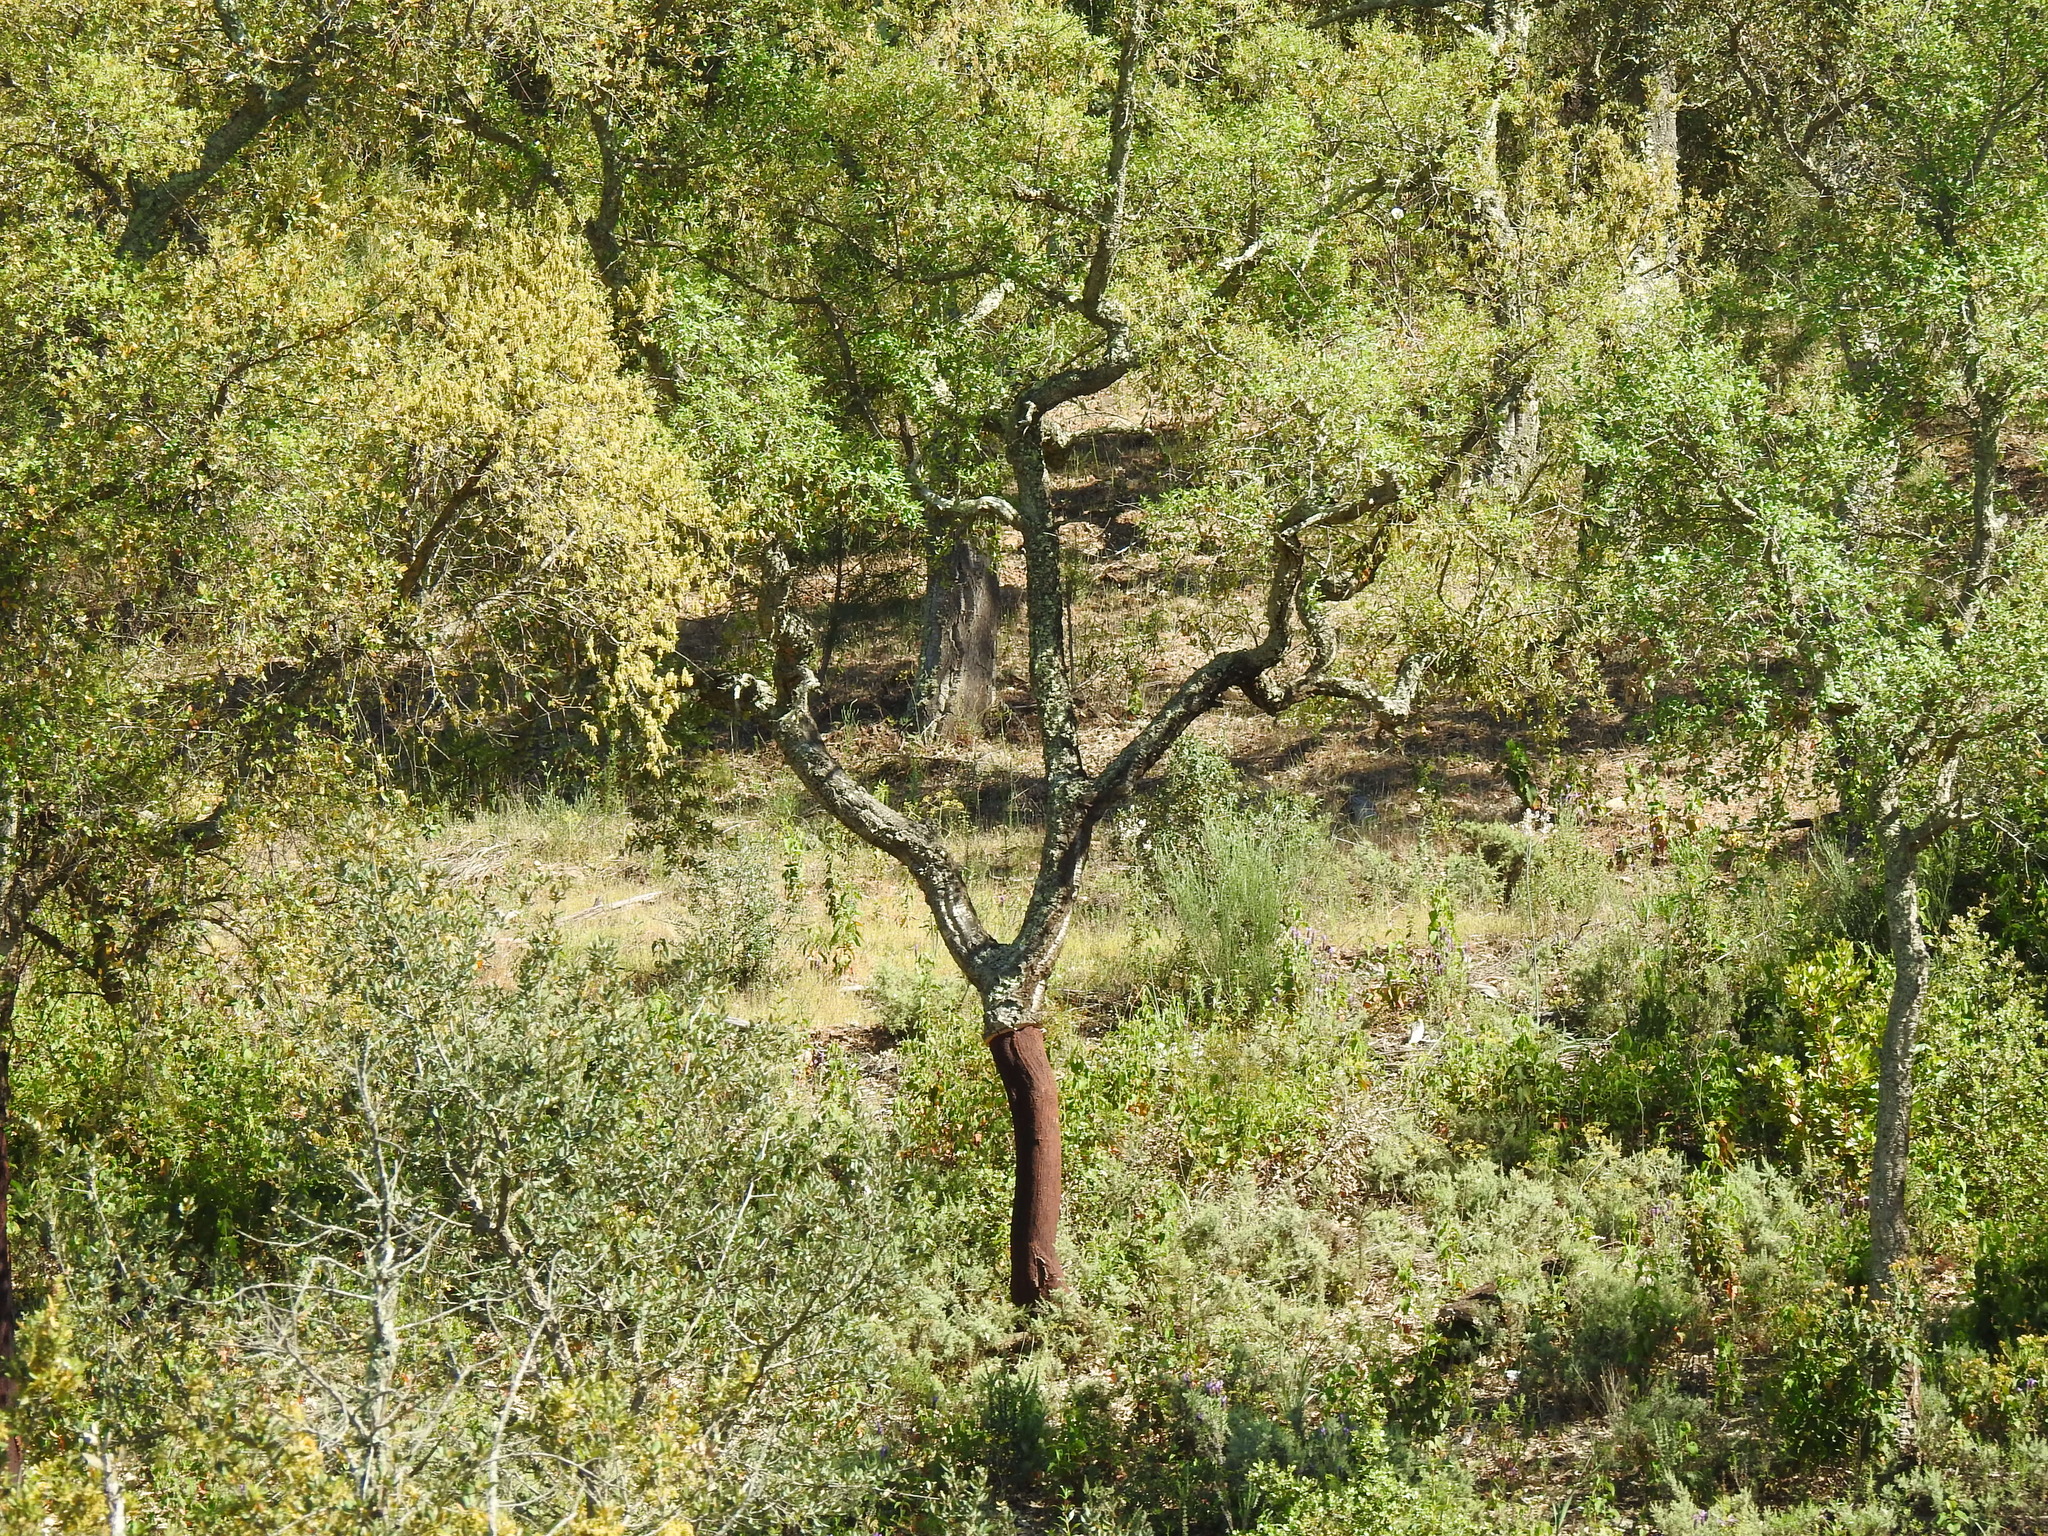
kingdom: Plantae
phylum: Tracheophyta
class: Magnoliopsida
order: Fagales
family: Fagaceae
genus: Quercus
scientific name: Quercus suber
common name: Cork oak
